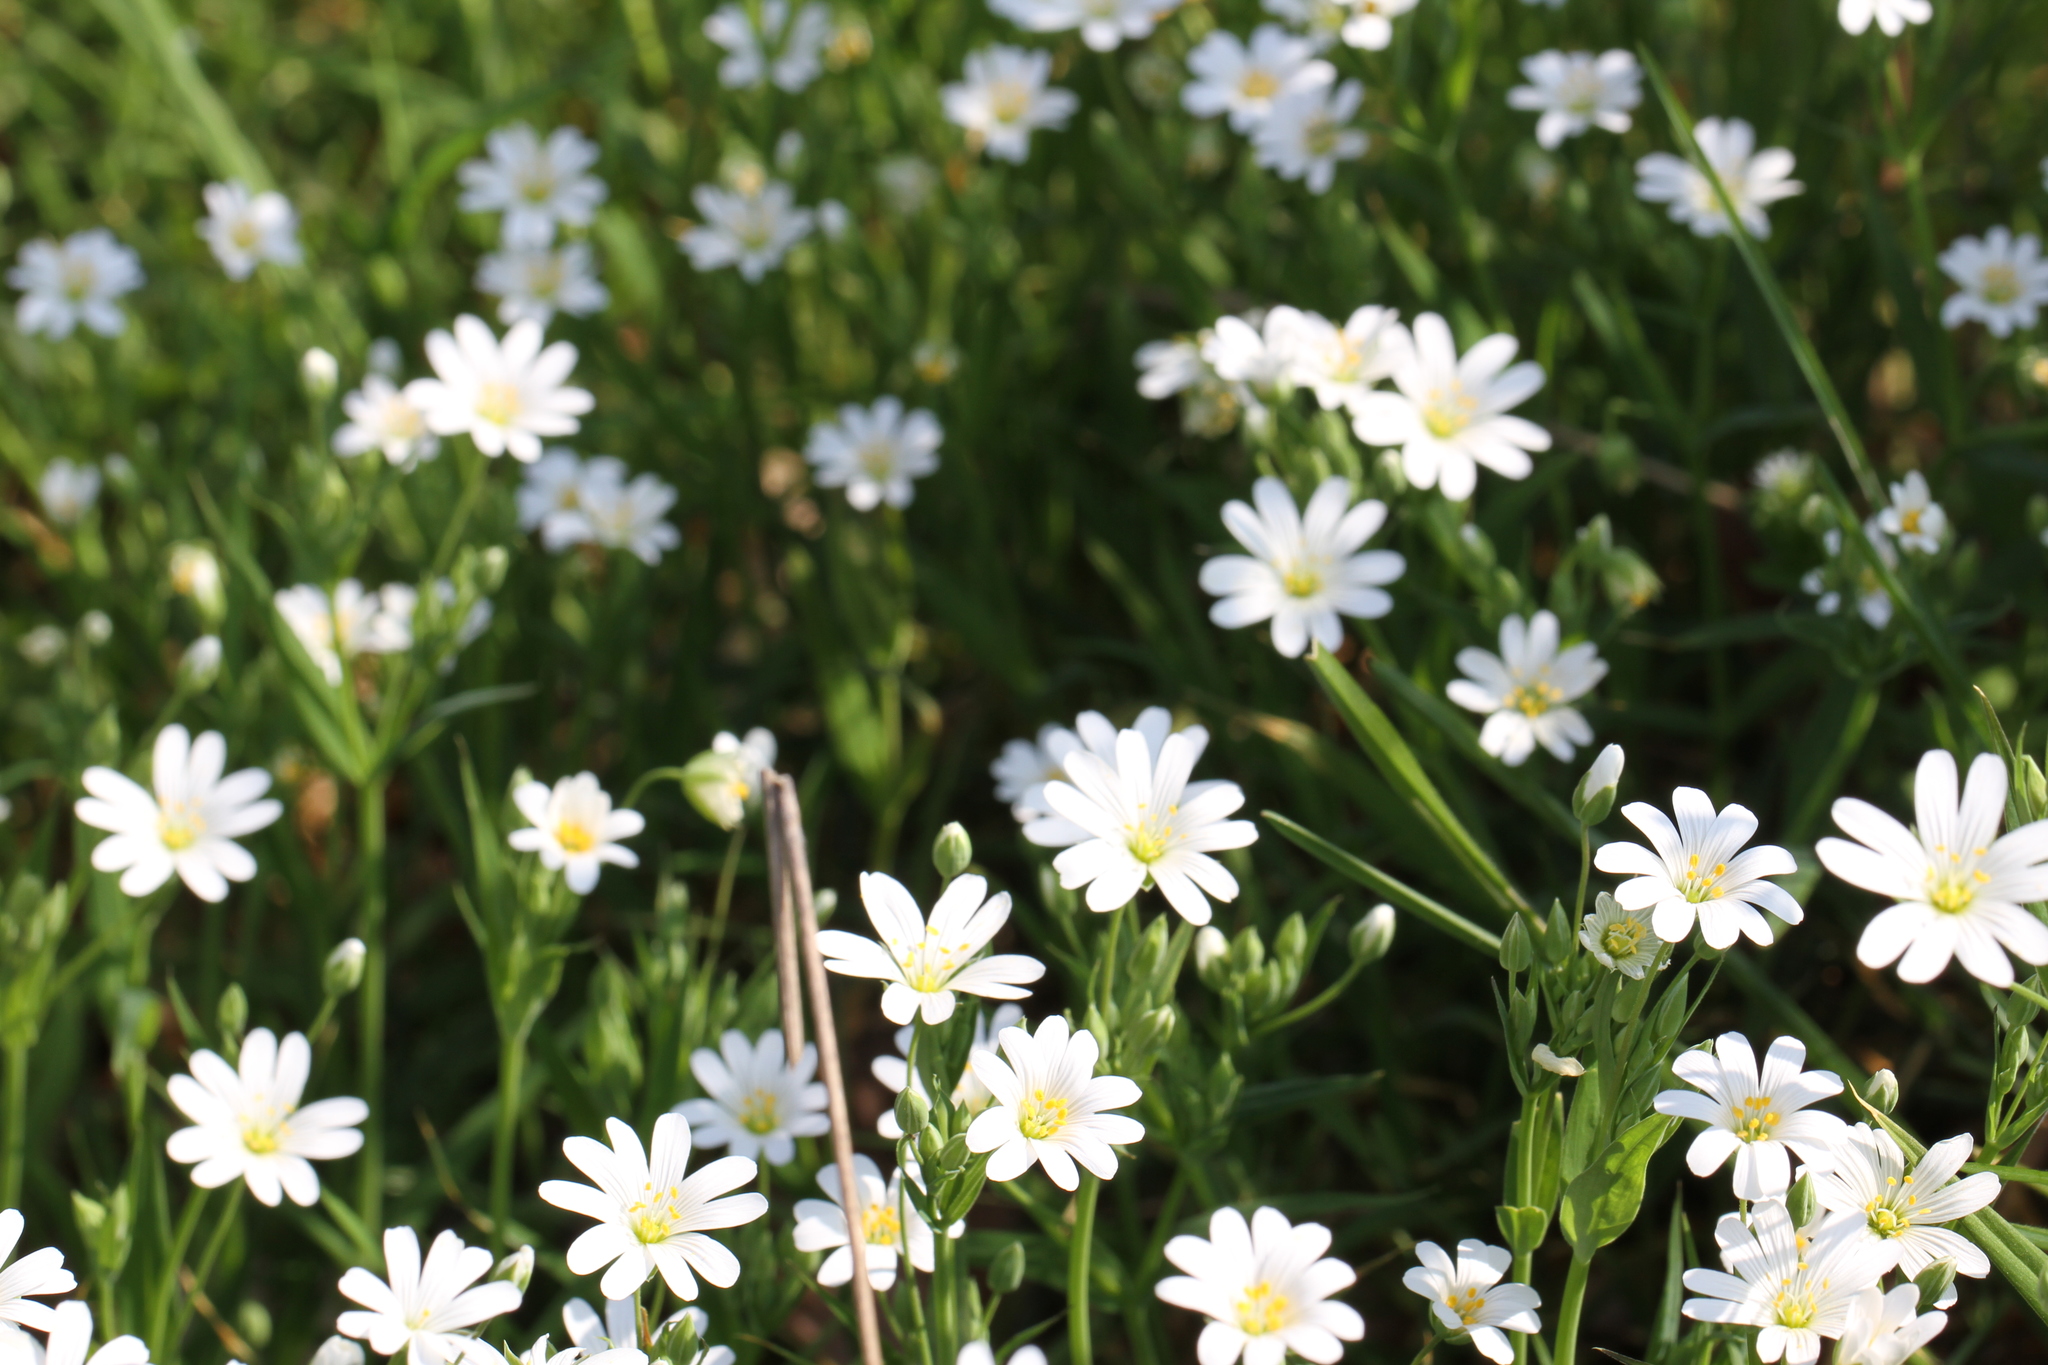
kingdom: Plantae
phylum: Tracheophyta
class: Magnoliopsida
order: Caryophyllales
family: Caryophyllaceae
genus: Rabelera
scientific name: Rabelera holostea
